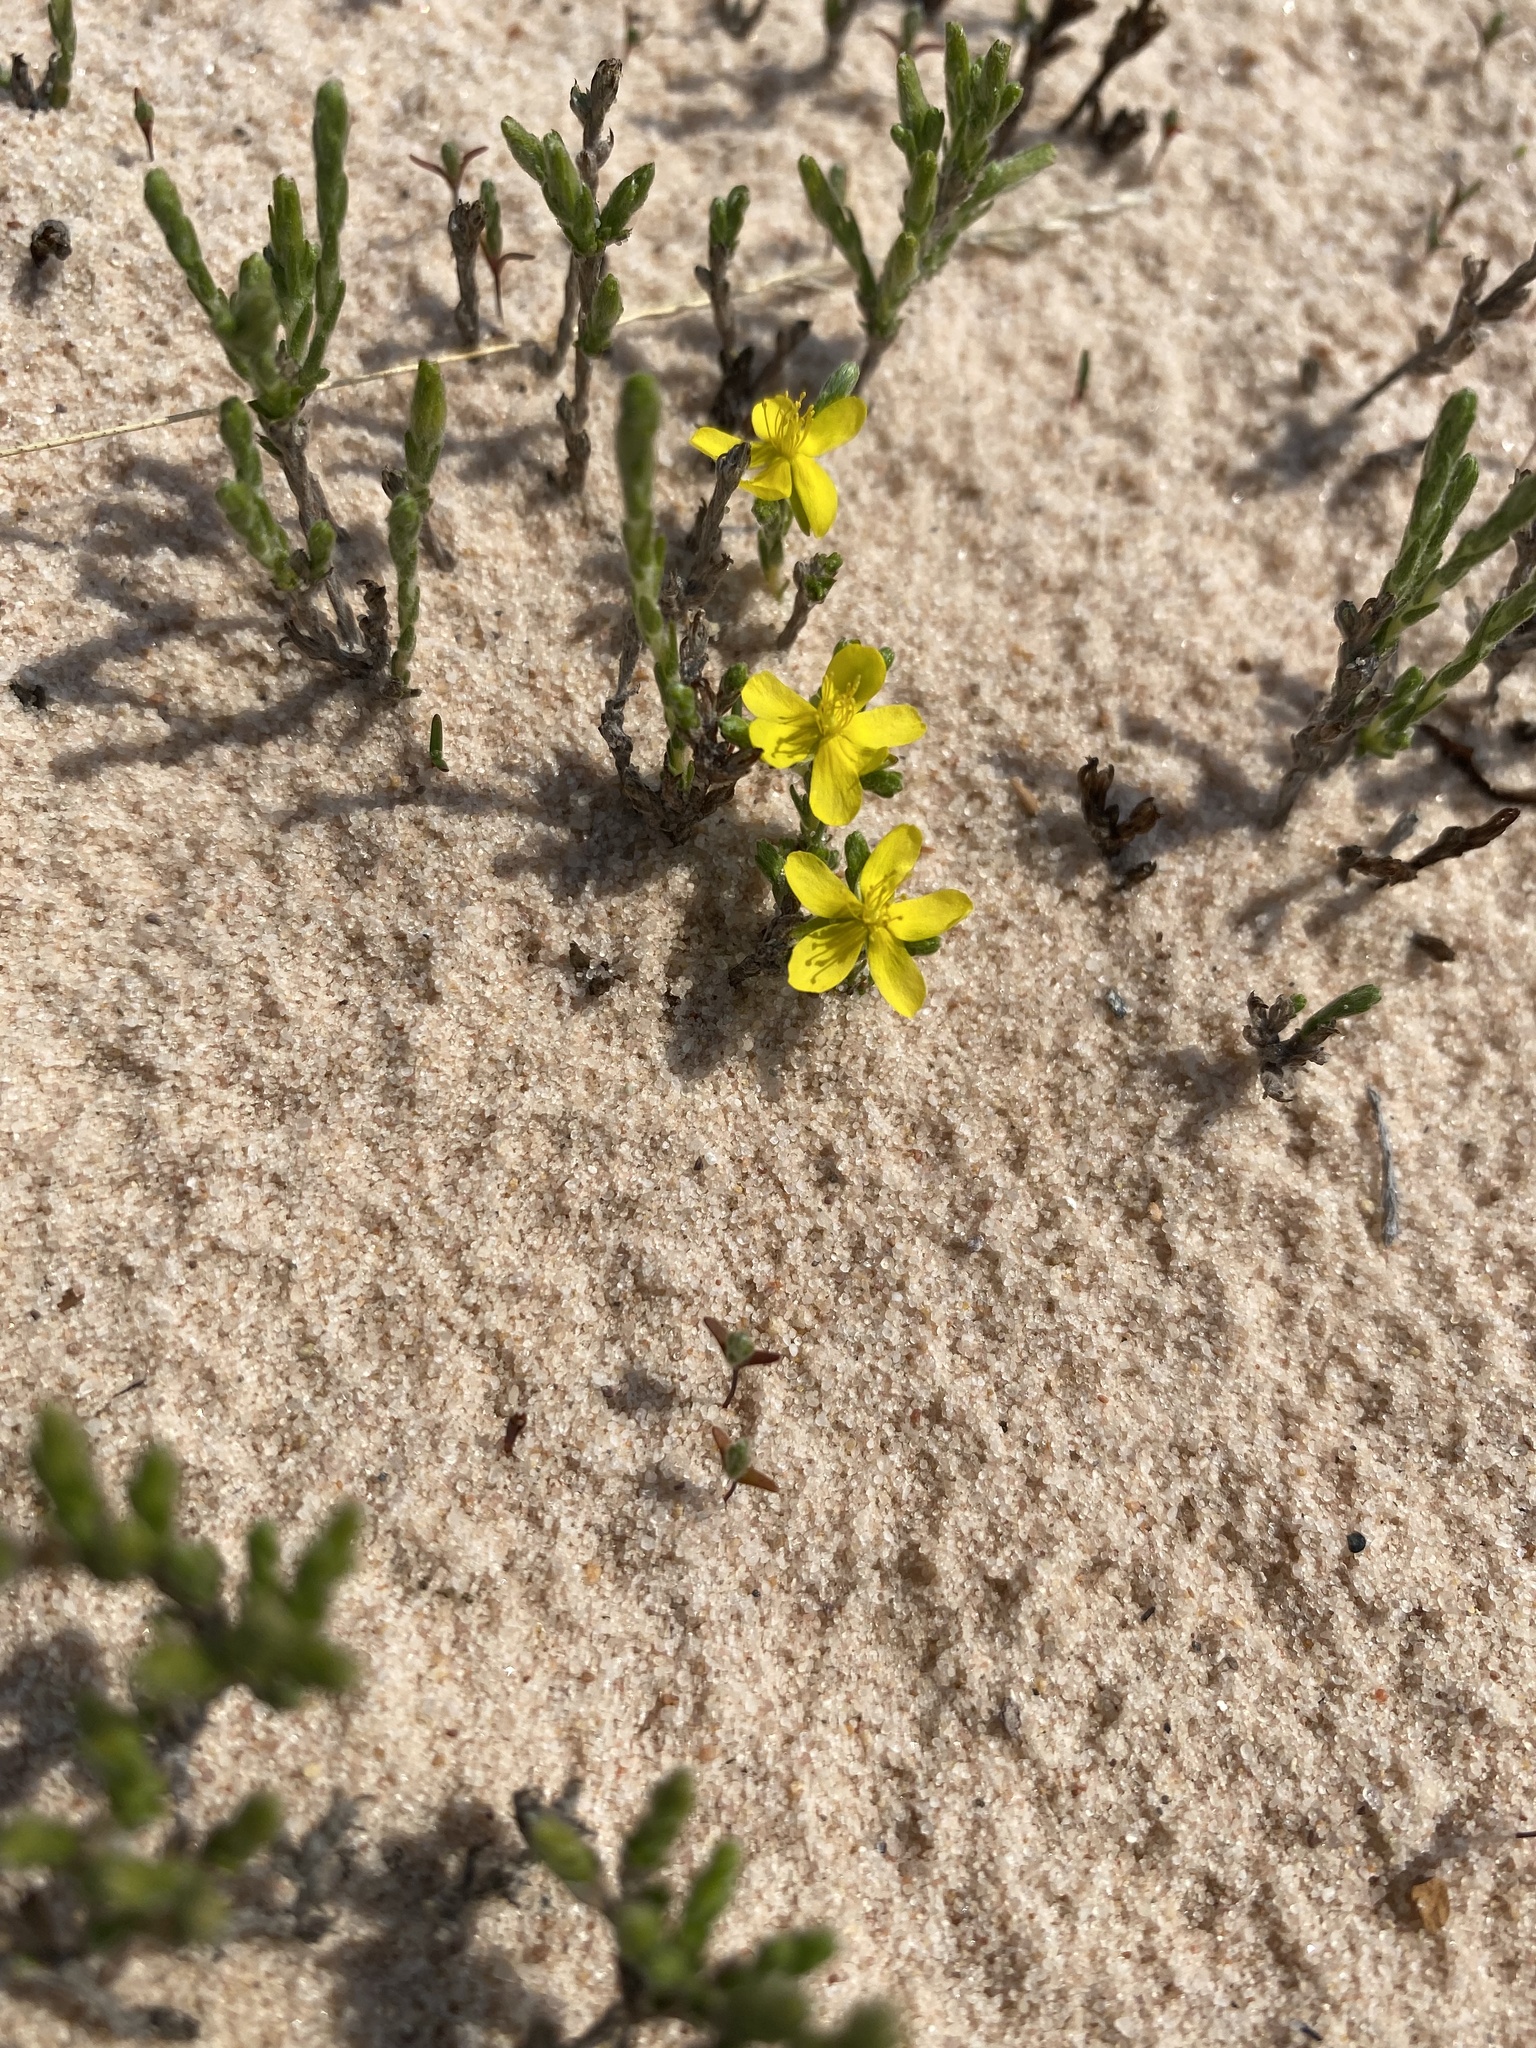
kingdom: Plantae
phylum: Tracheophyta
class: Magnoliopsida
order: Malvales
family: Cistaceae
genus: Hudsonia
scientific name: Hudsonia tomentosa
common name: Beach-heath
